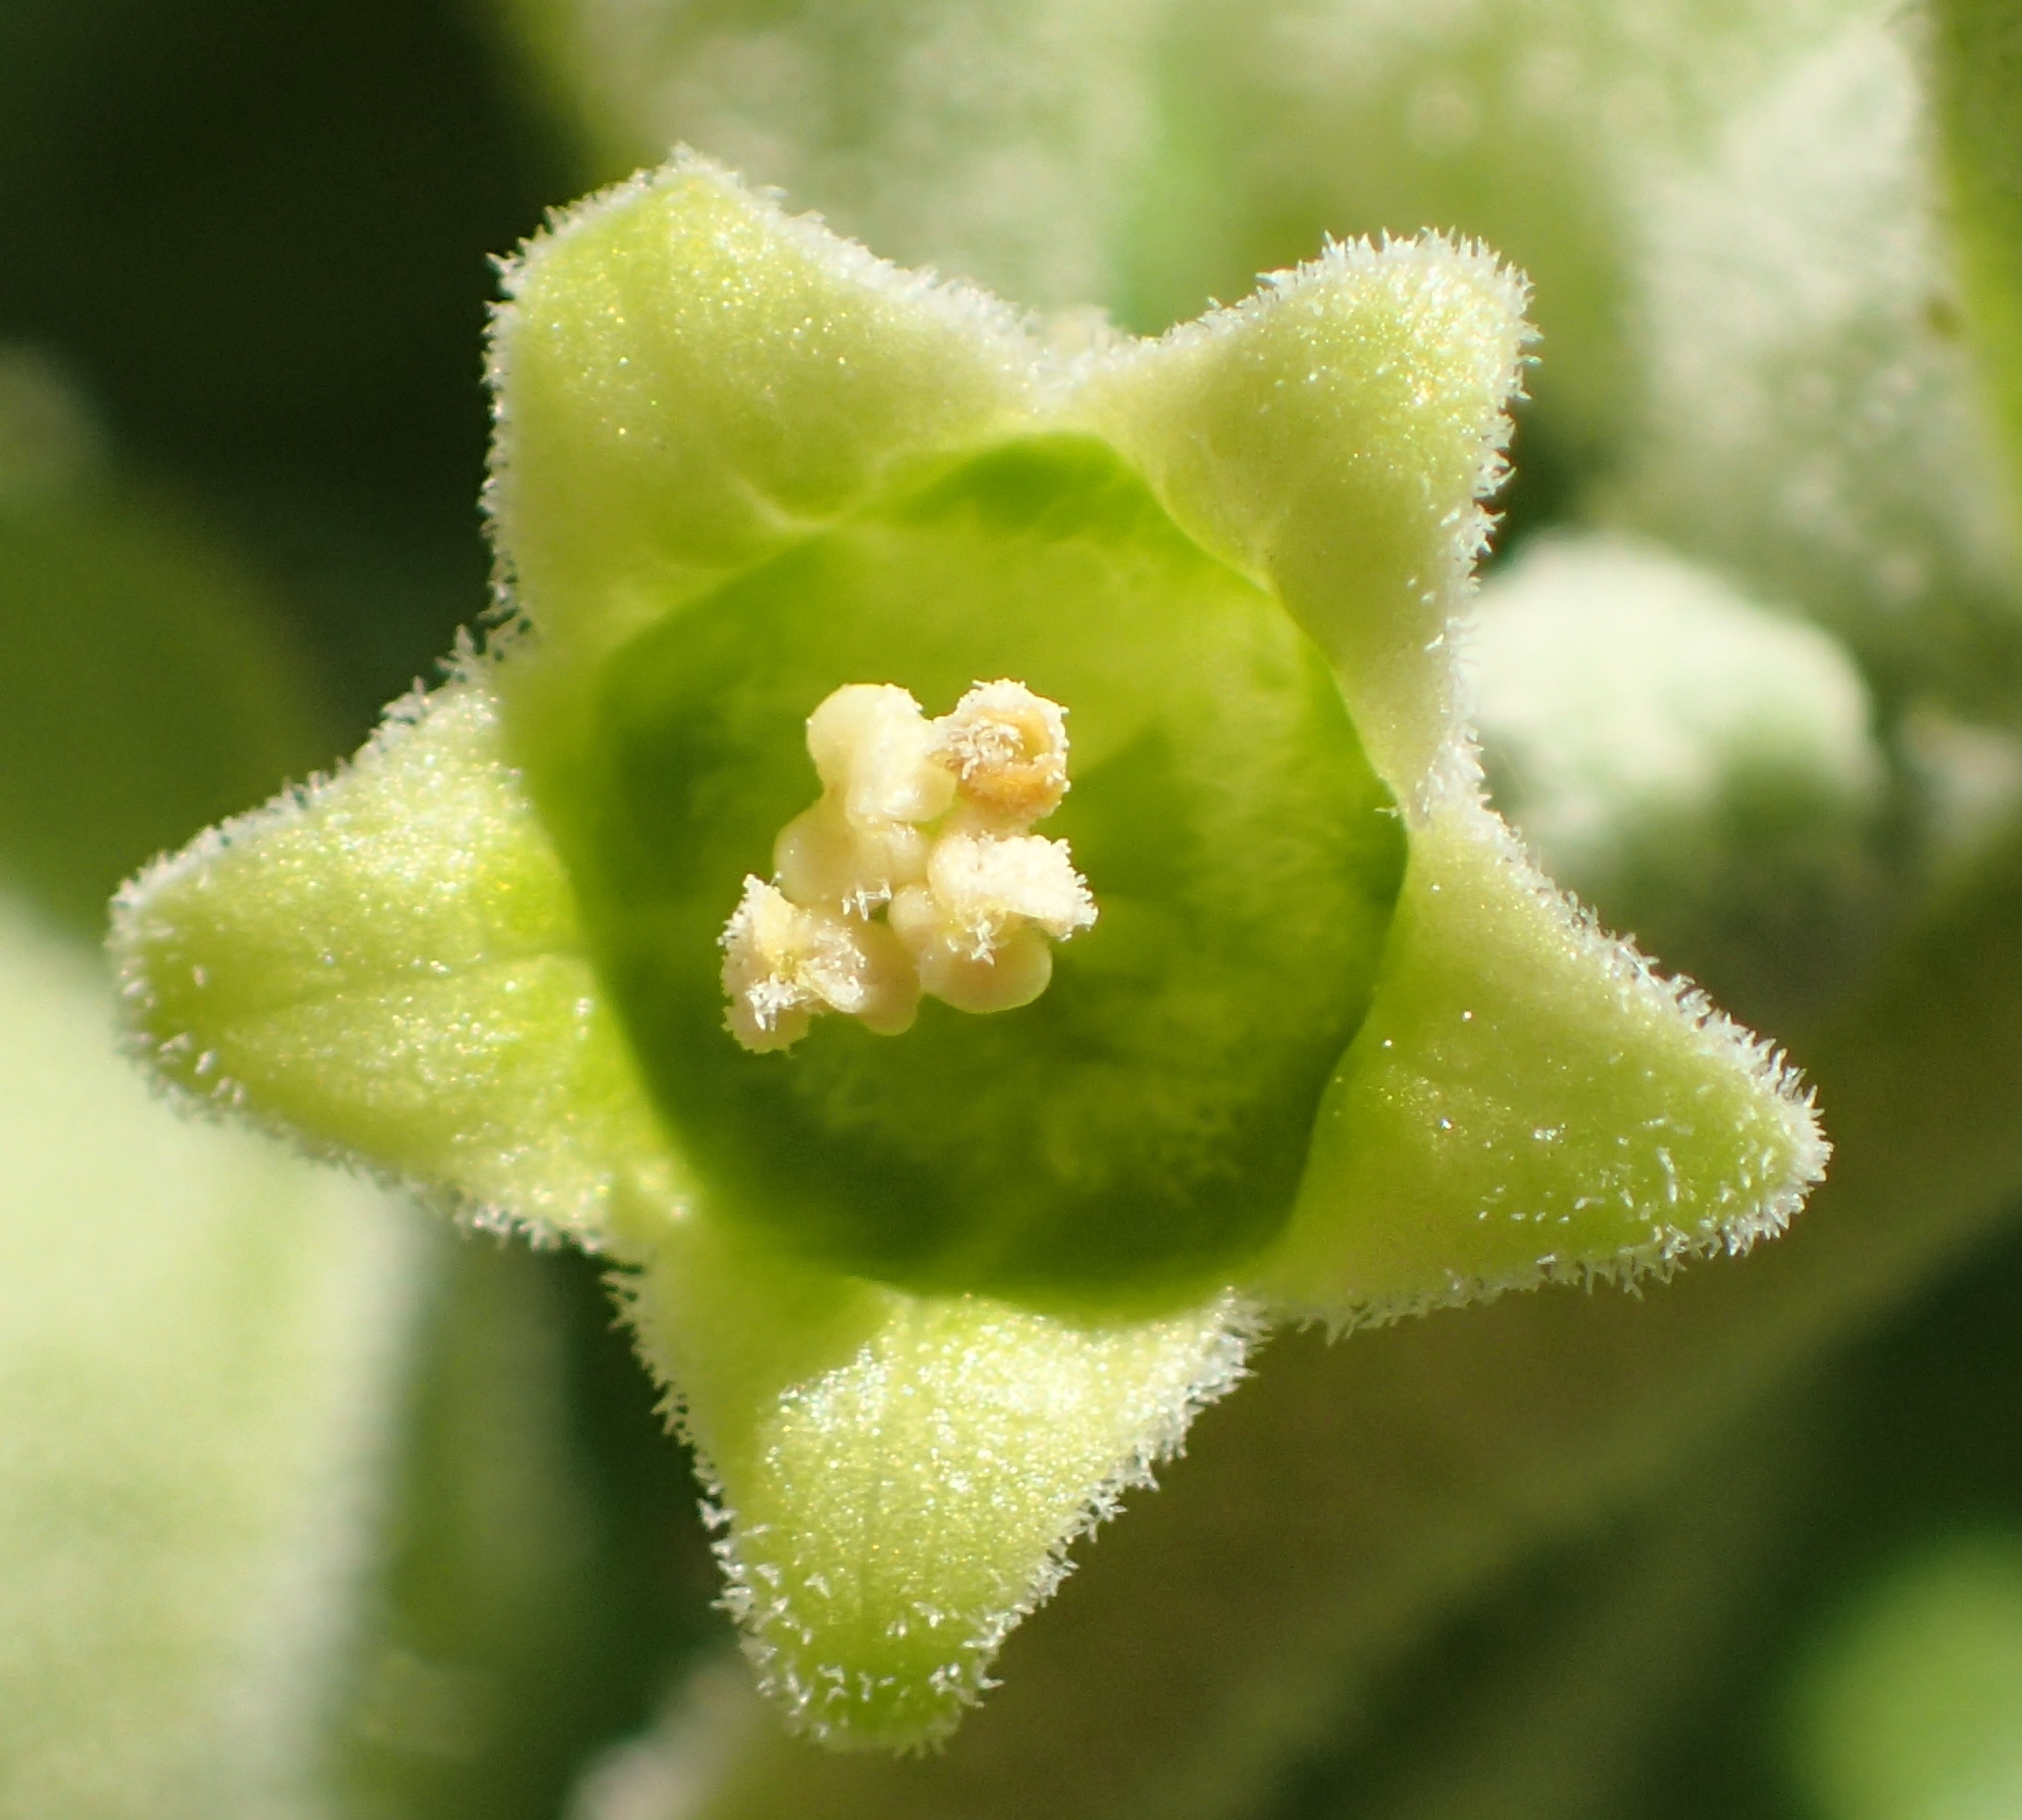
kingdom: Plantae
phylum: Tracheophyta
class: Magnoliopsida
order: Solanales
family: Solanaceae
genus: Withania
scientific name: Withania somnifera
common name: Winter-cherry
